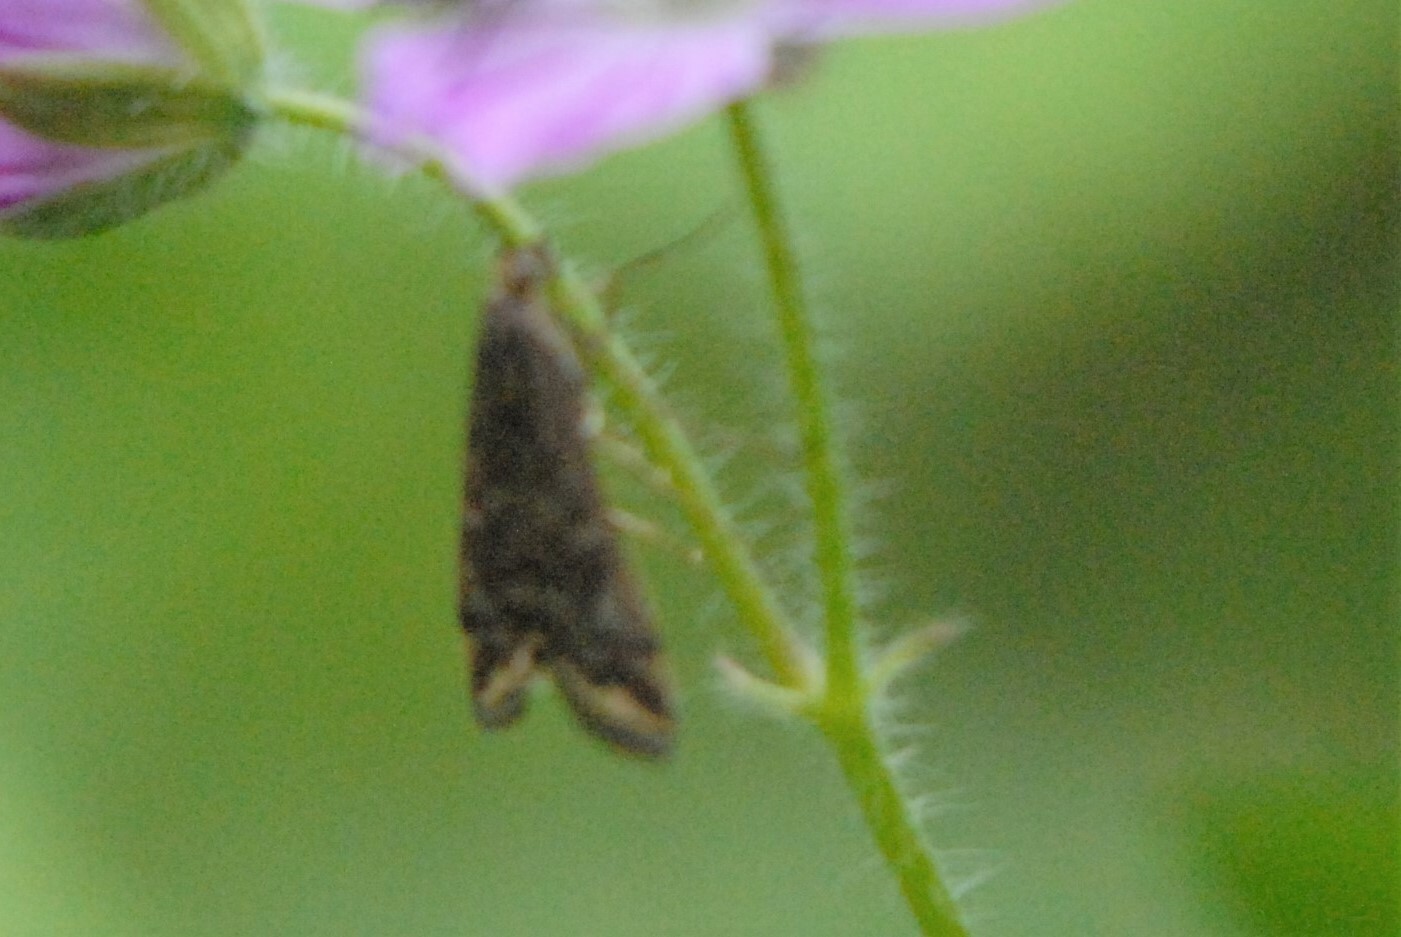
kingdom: Animalia
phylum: Arthropoda
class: Insecta
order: Lepidoptera
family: Crambidae
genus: Loxostege
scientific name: Loxostege sticticalis
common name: Crambid moth
